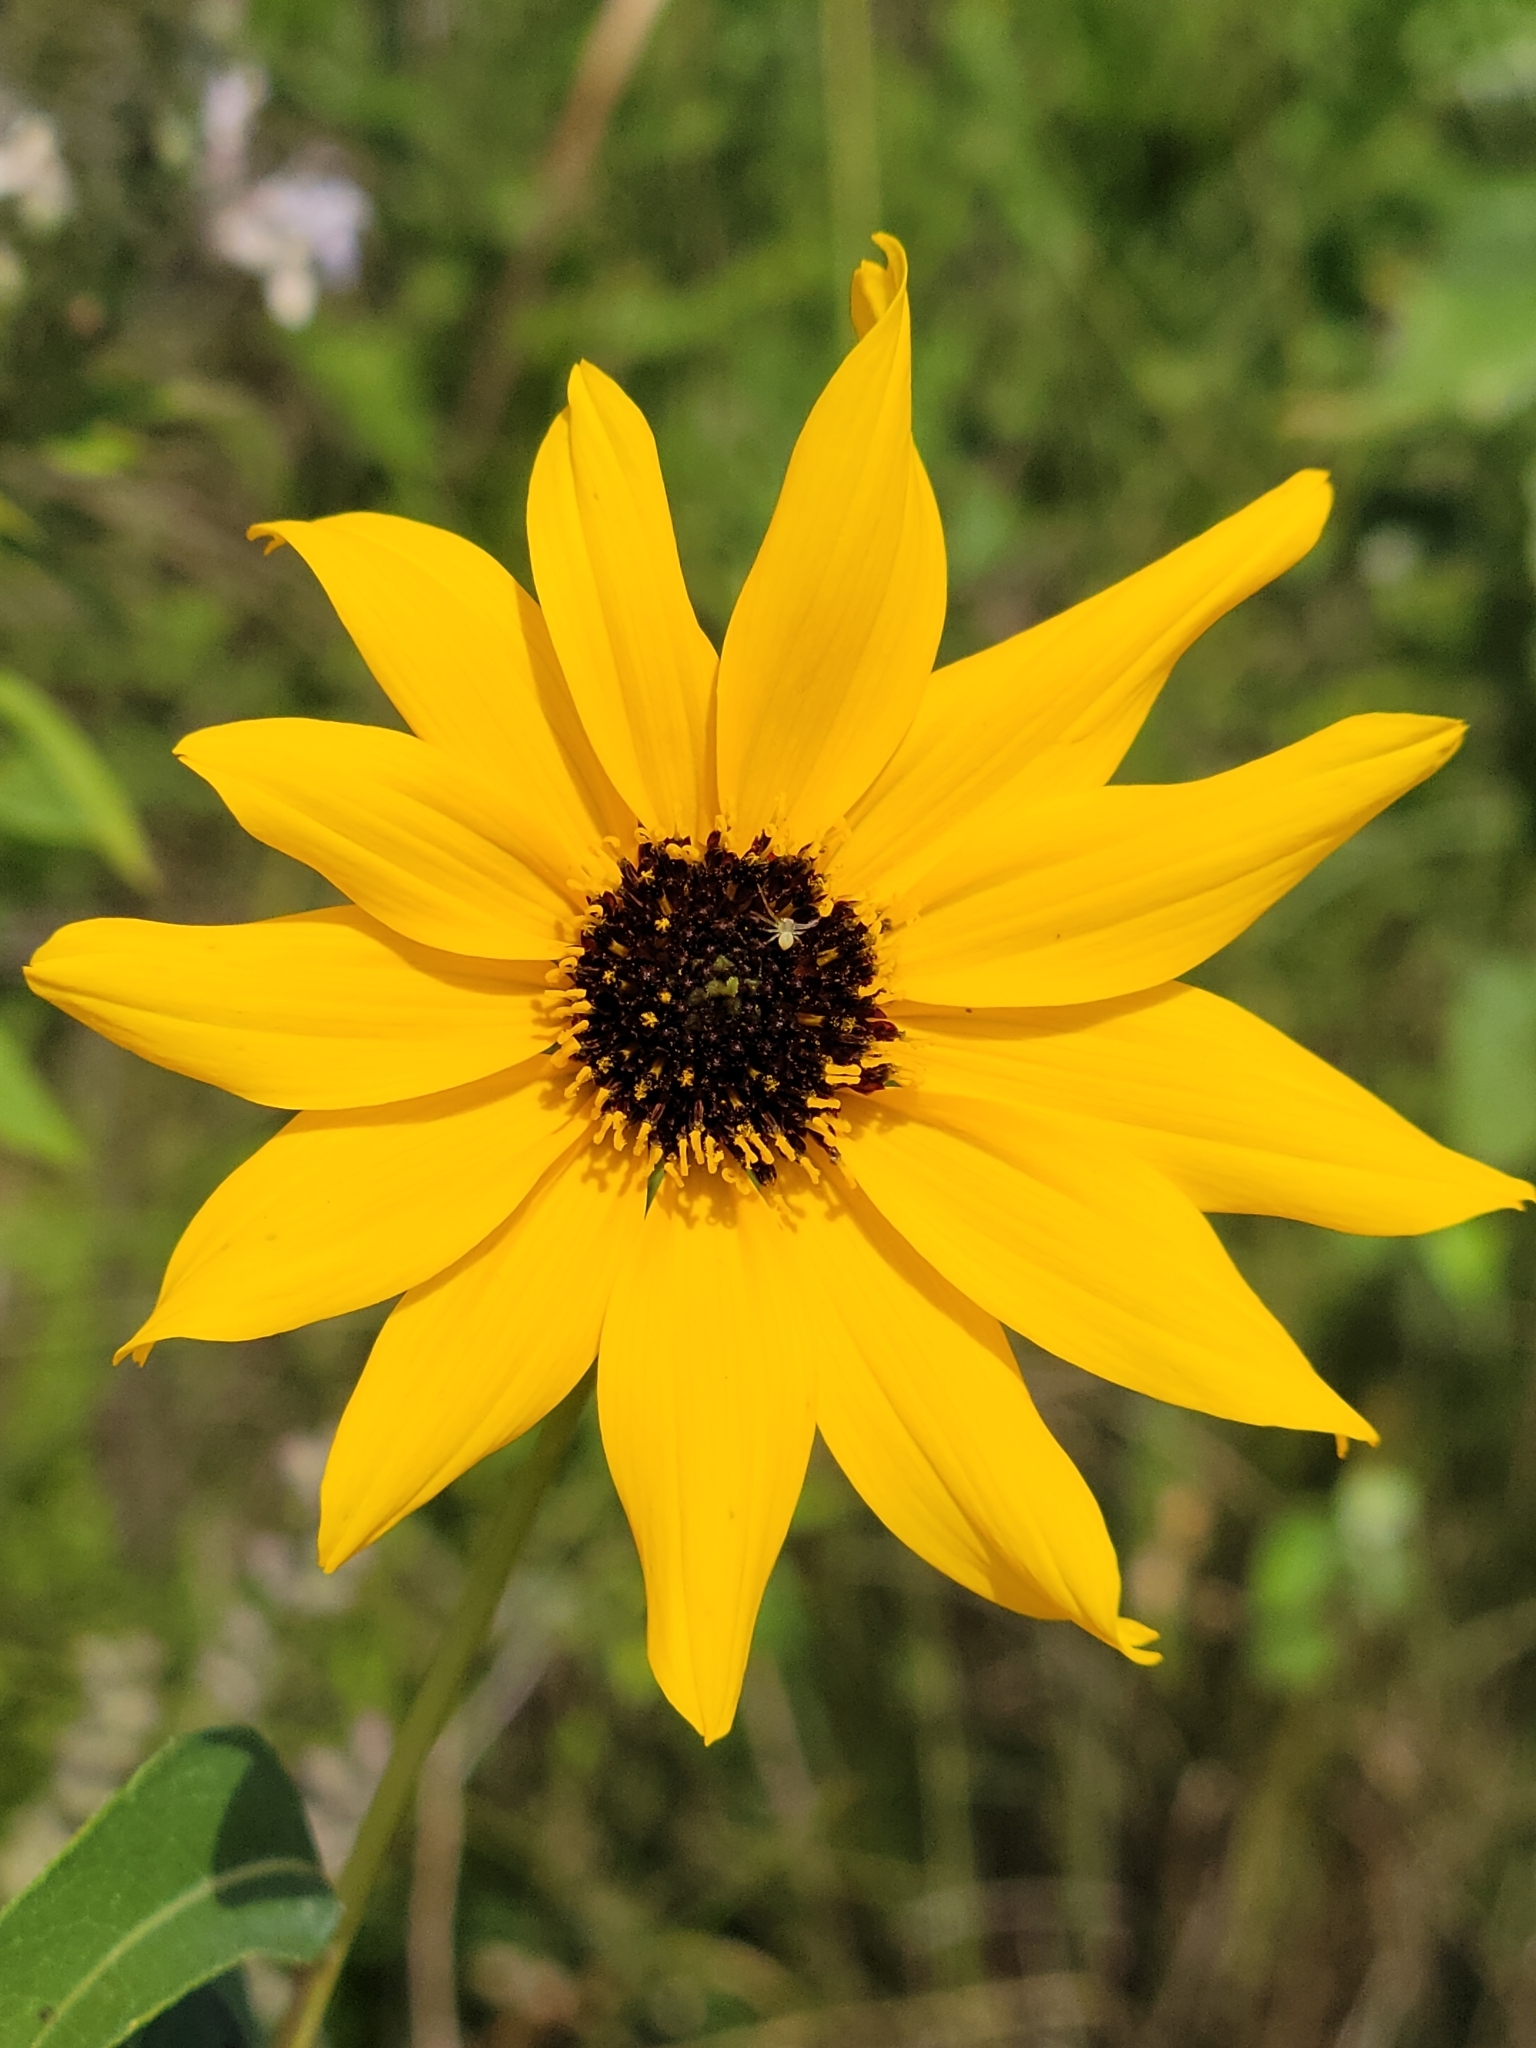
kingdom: Plantae
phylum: Tracheophyta
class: Magnoliopsida
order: Asterales
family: Asteraceae
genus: Helianthus
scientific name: Helianthus agrestis
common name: Rural sunflower
